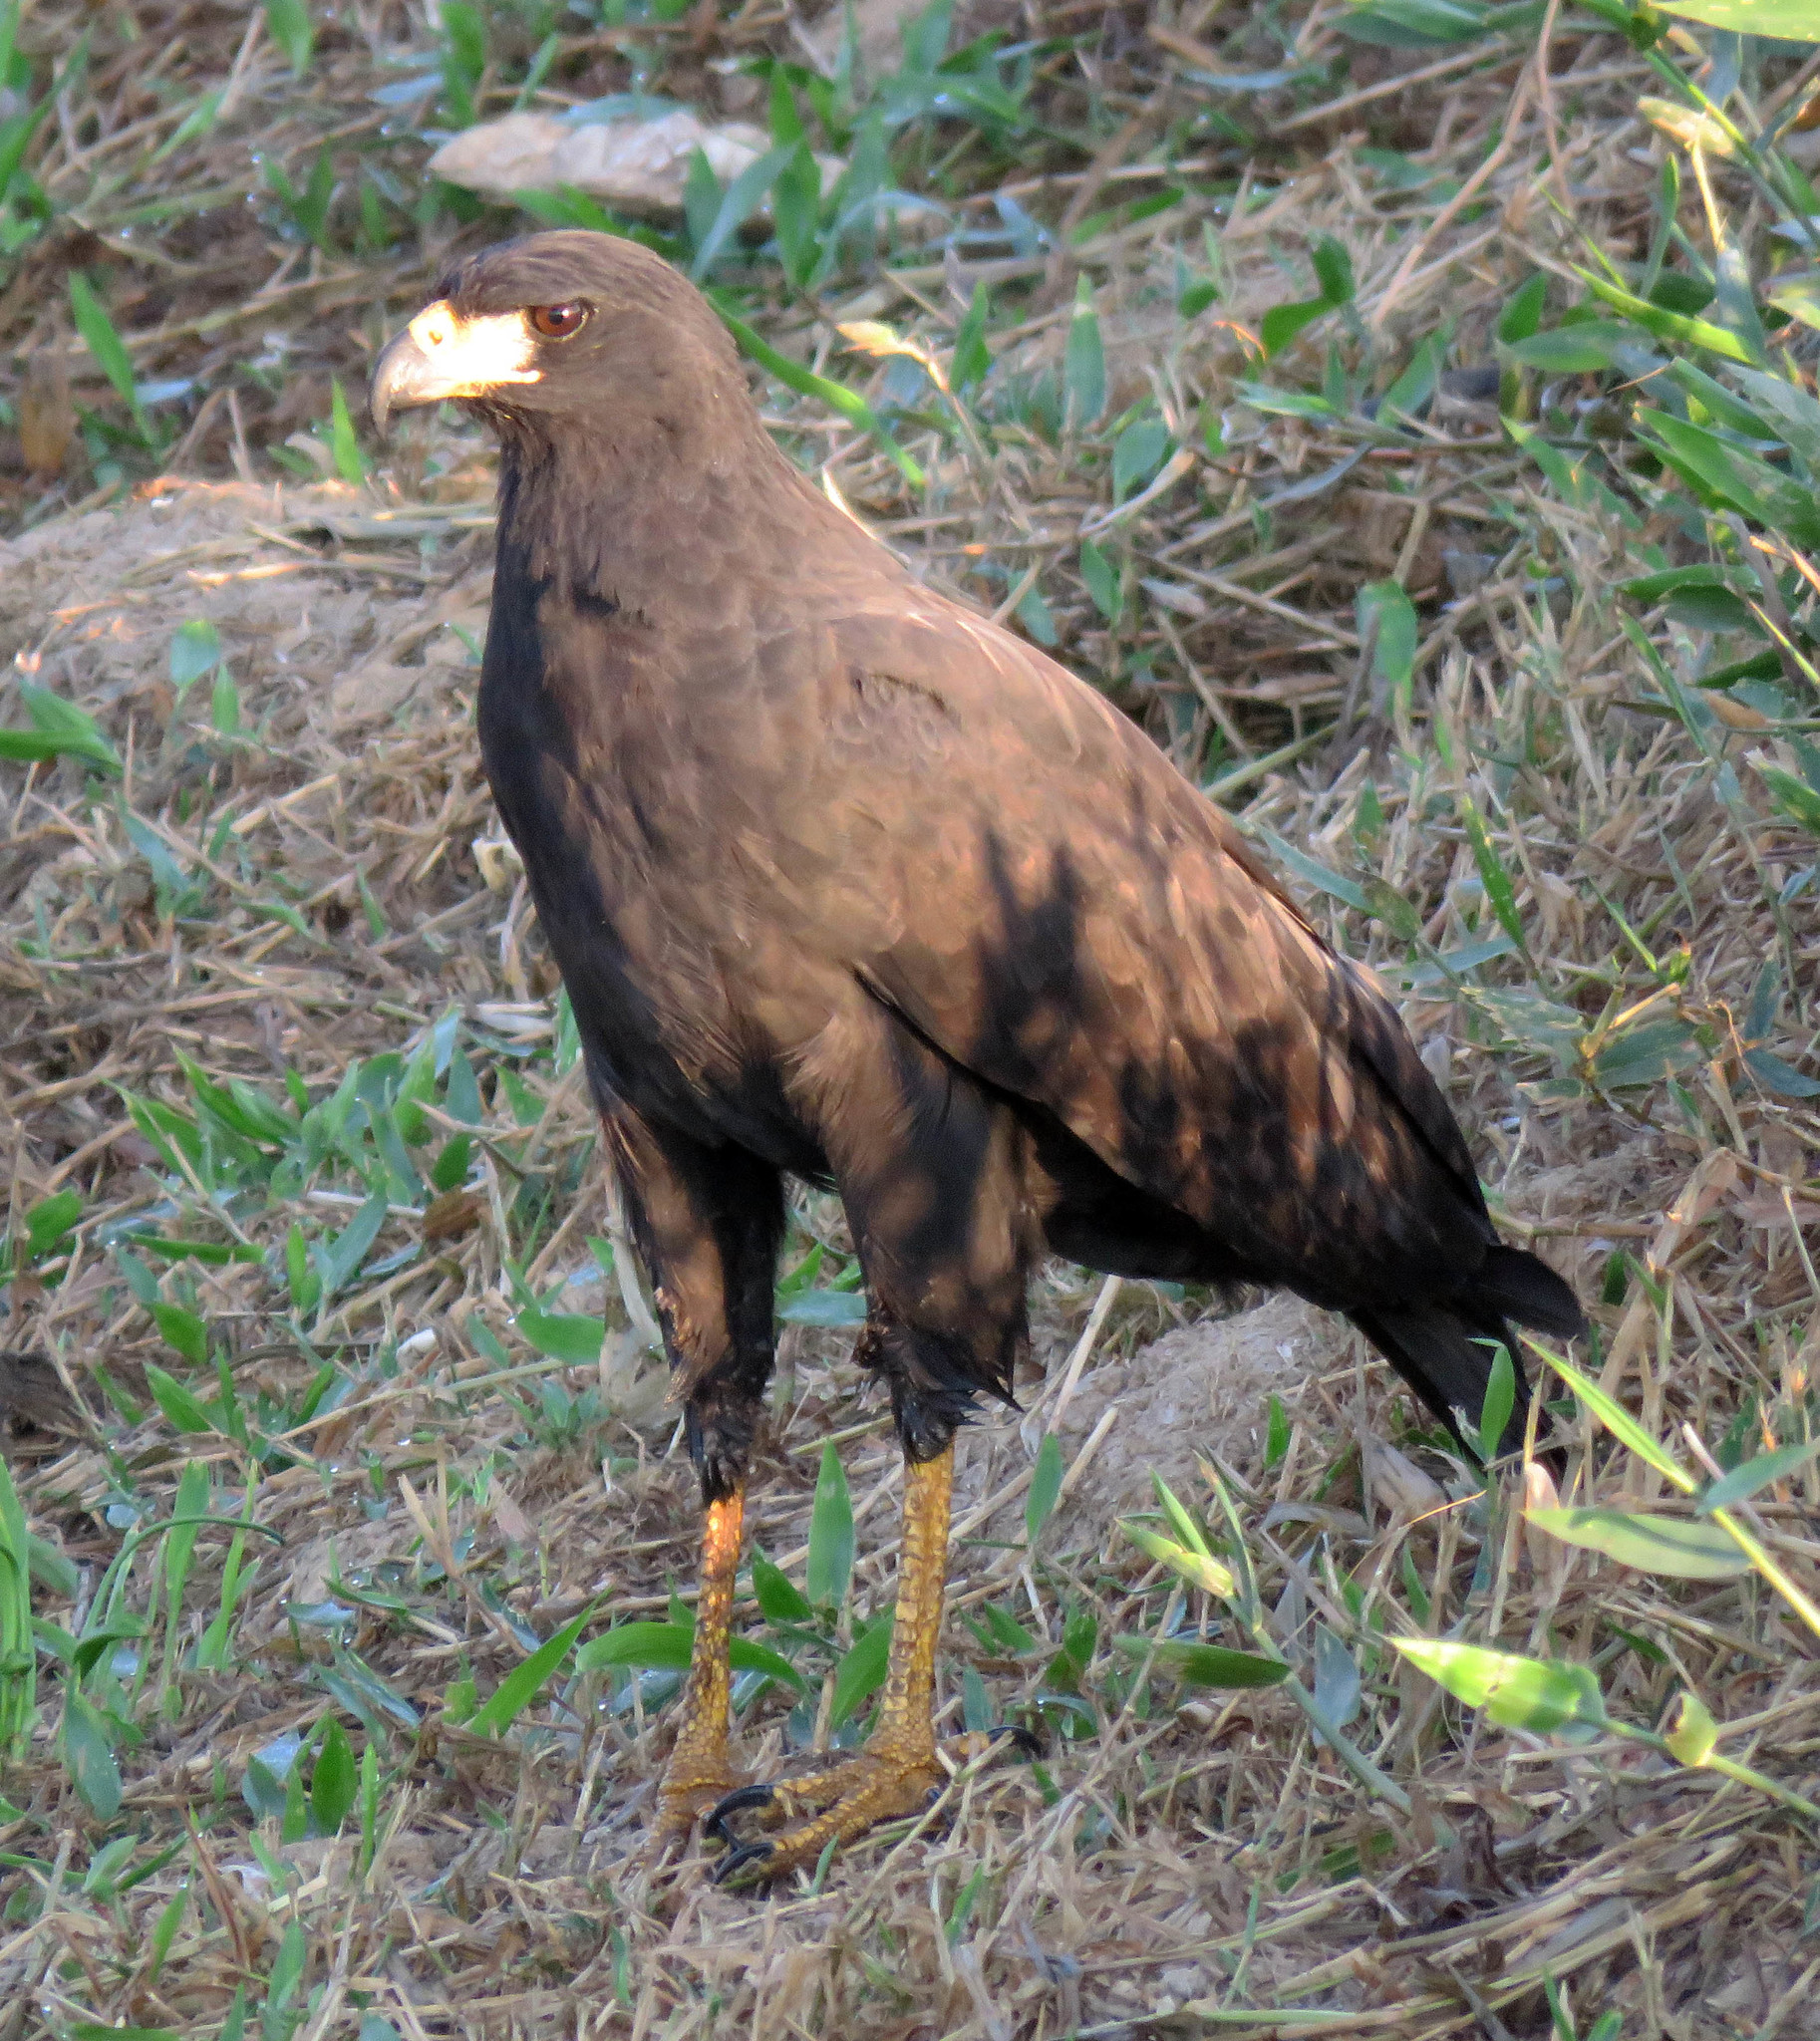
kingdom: Animalia
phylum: Chordata
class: Aves
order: Accipitriformes
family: Accipitridae
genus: Buteogallus
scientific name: Buteogallus urubitinga
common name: Great black hawk
